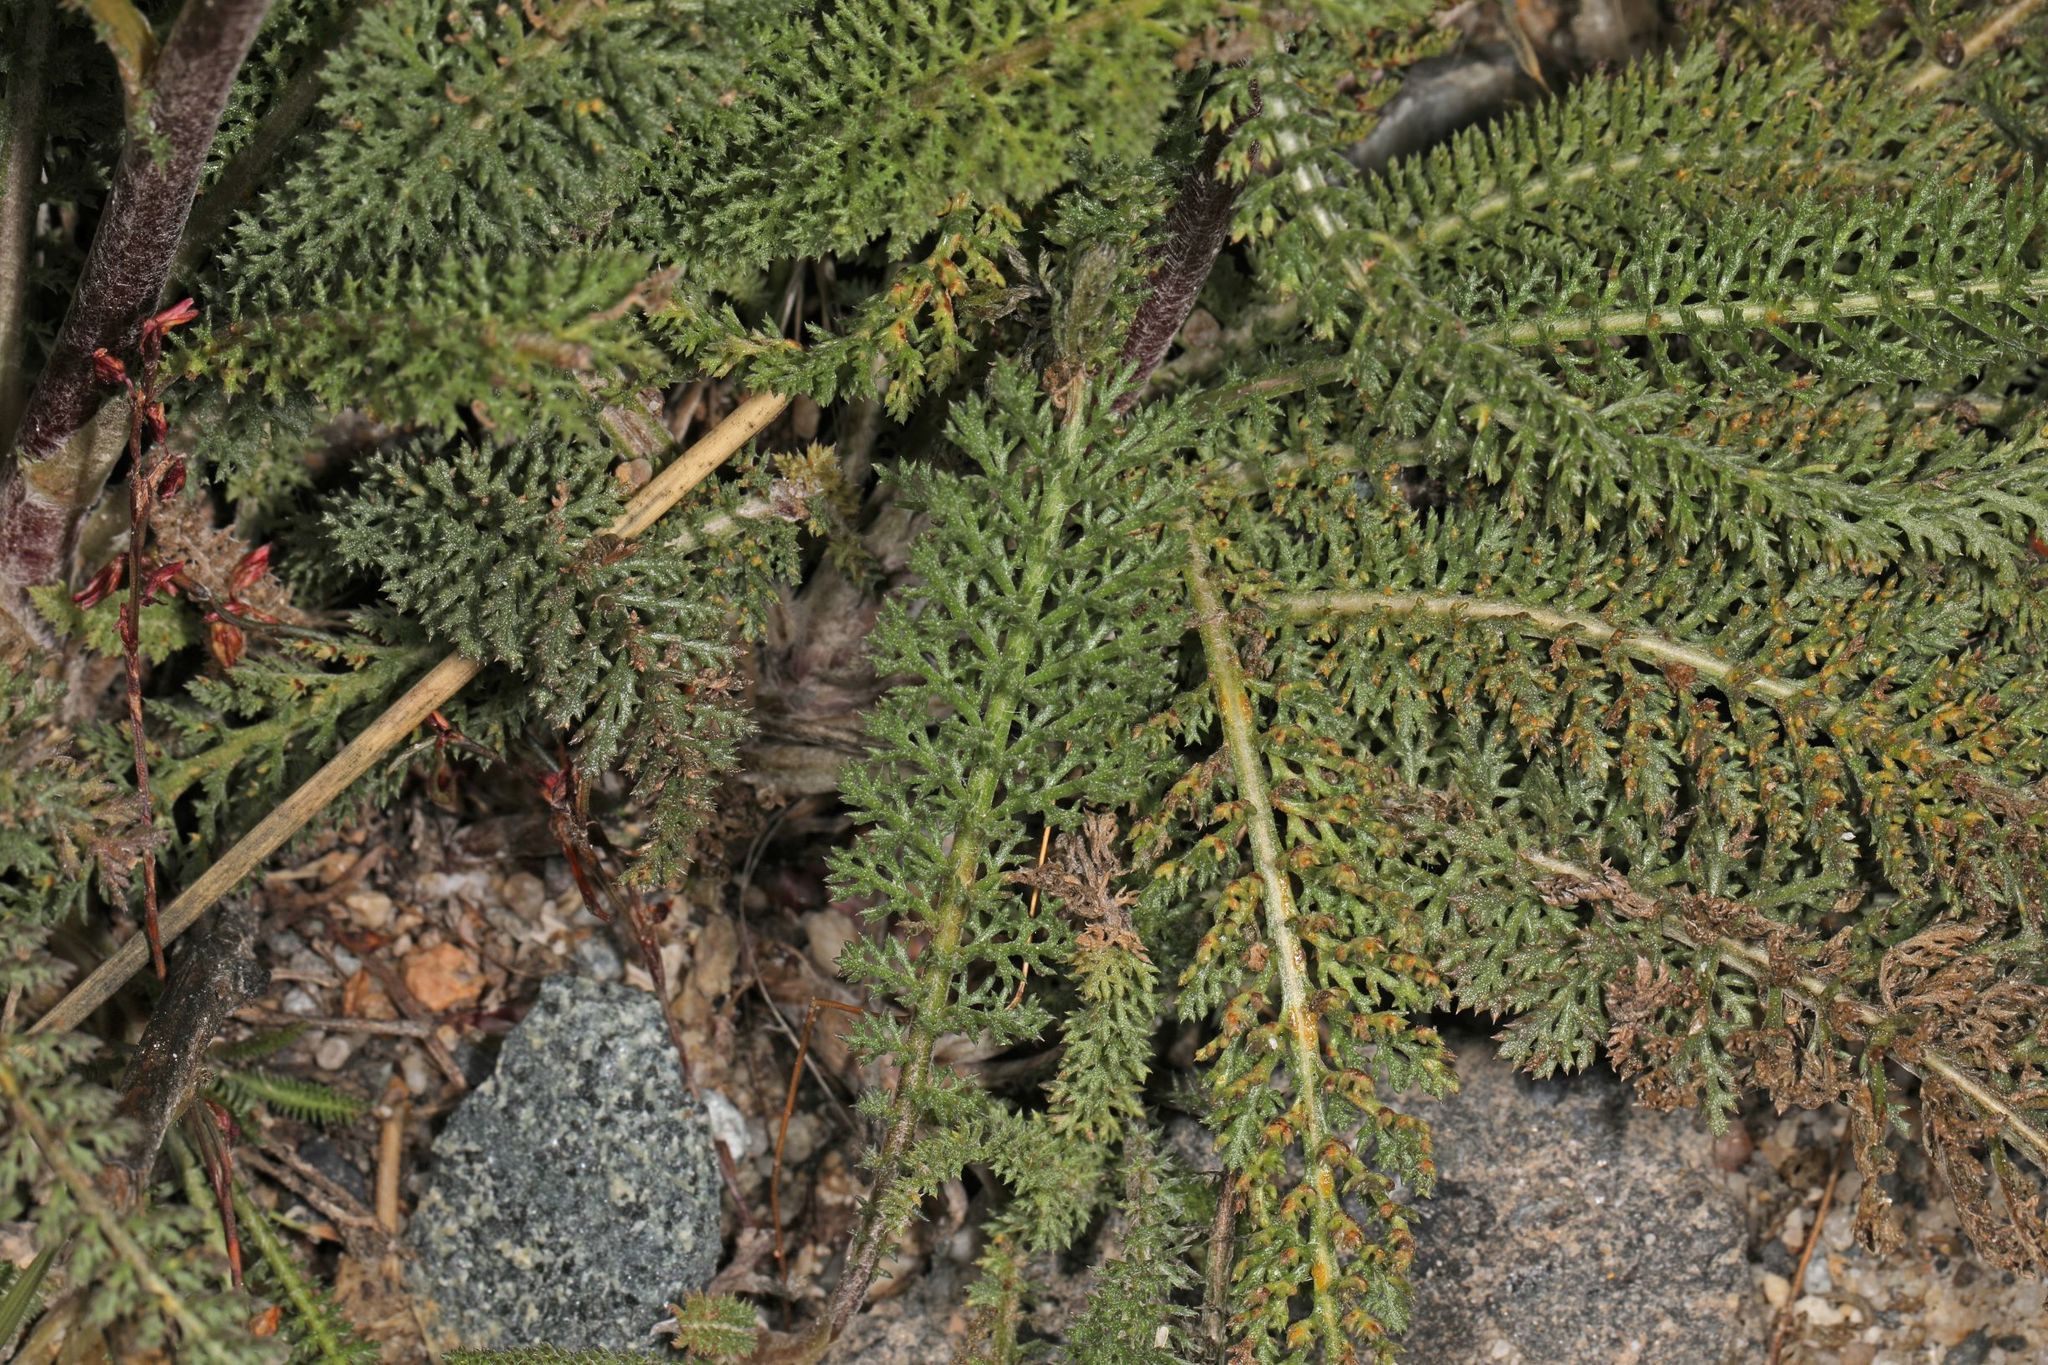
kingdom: Plantae
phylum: Tracheophyta
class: Magnoliopsida
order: Asterales
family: Asteraceae
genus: Achillea
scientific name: Achillea millefolium
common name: Yarrow
